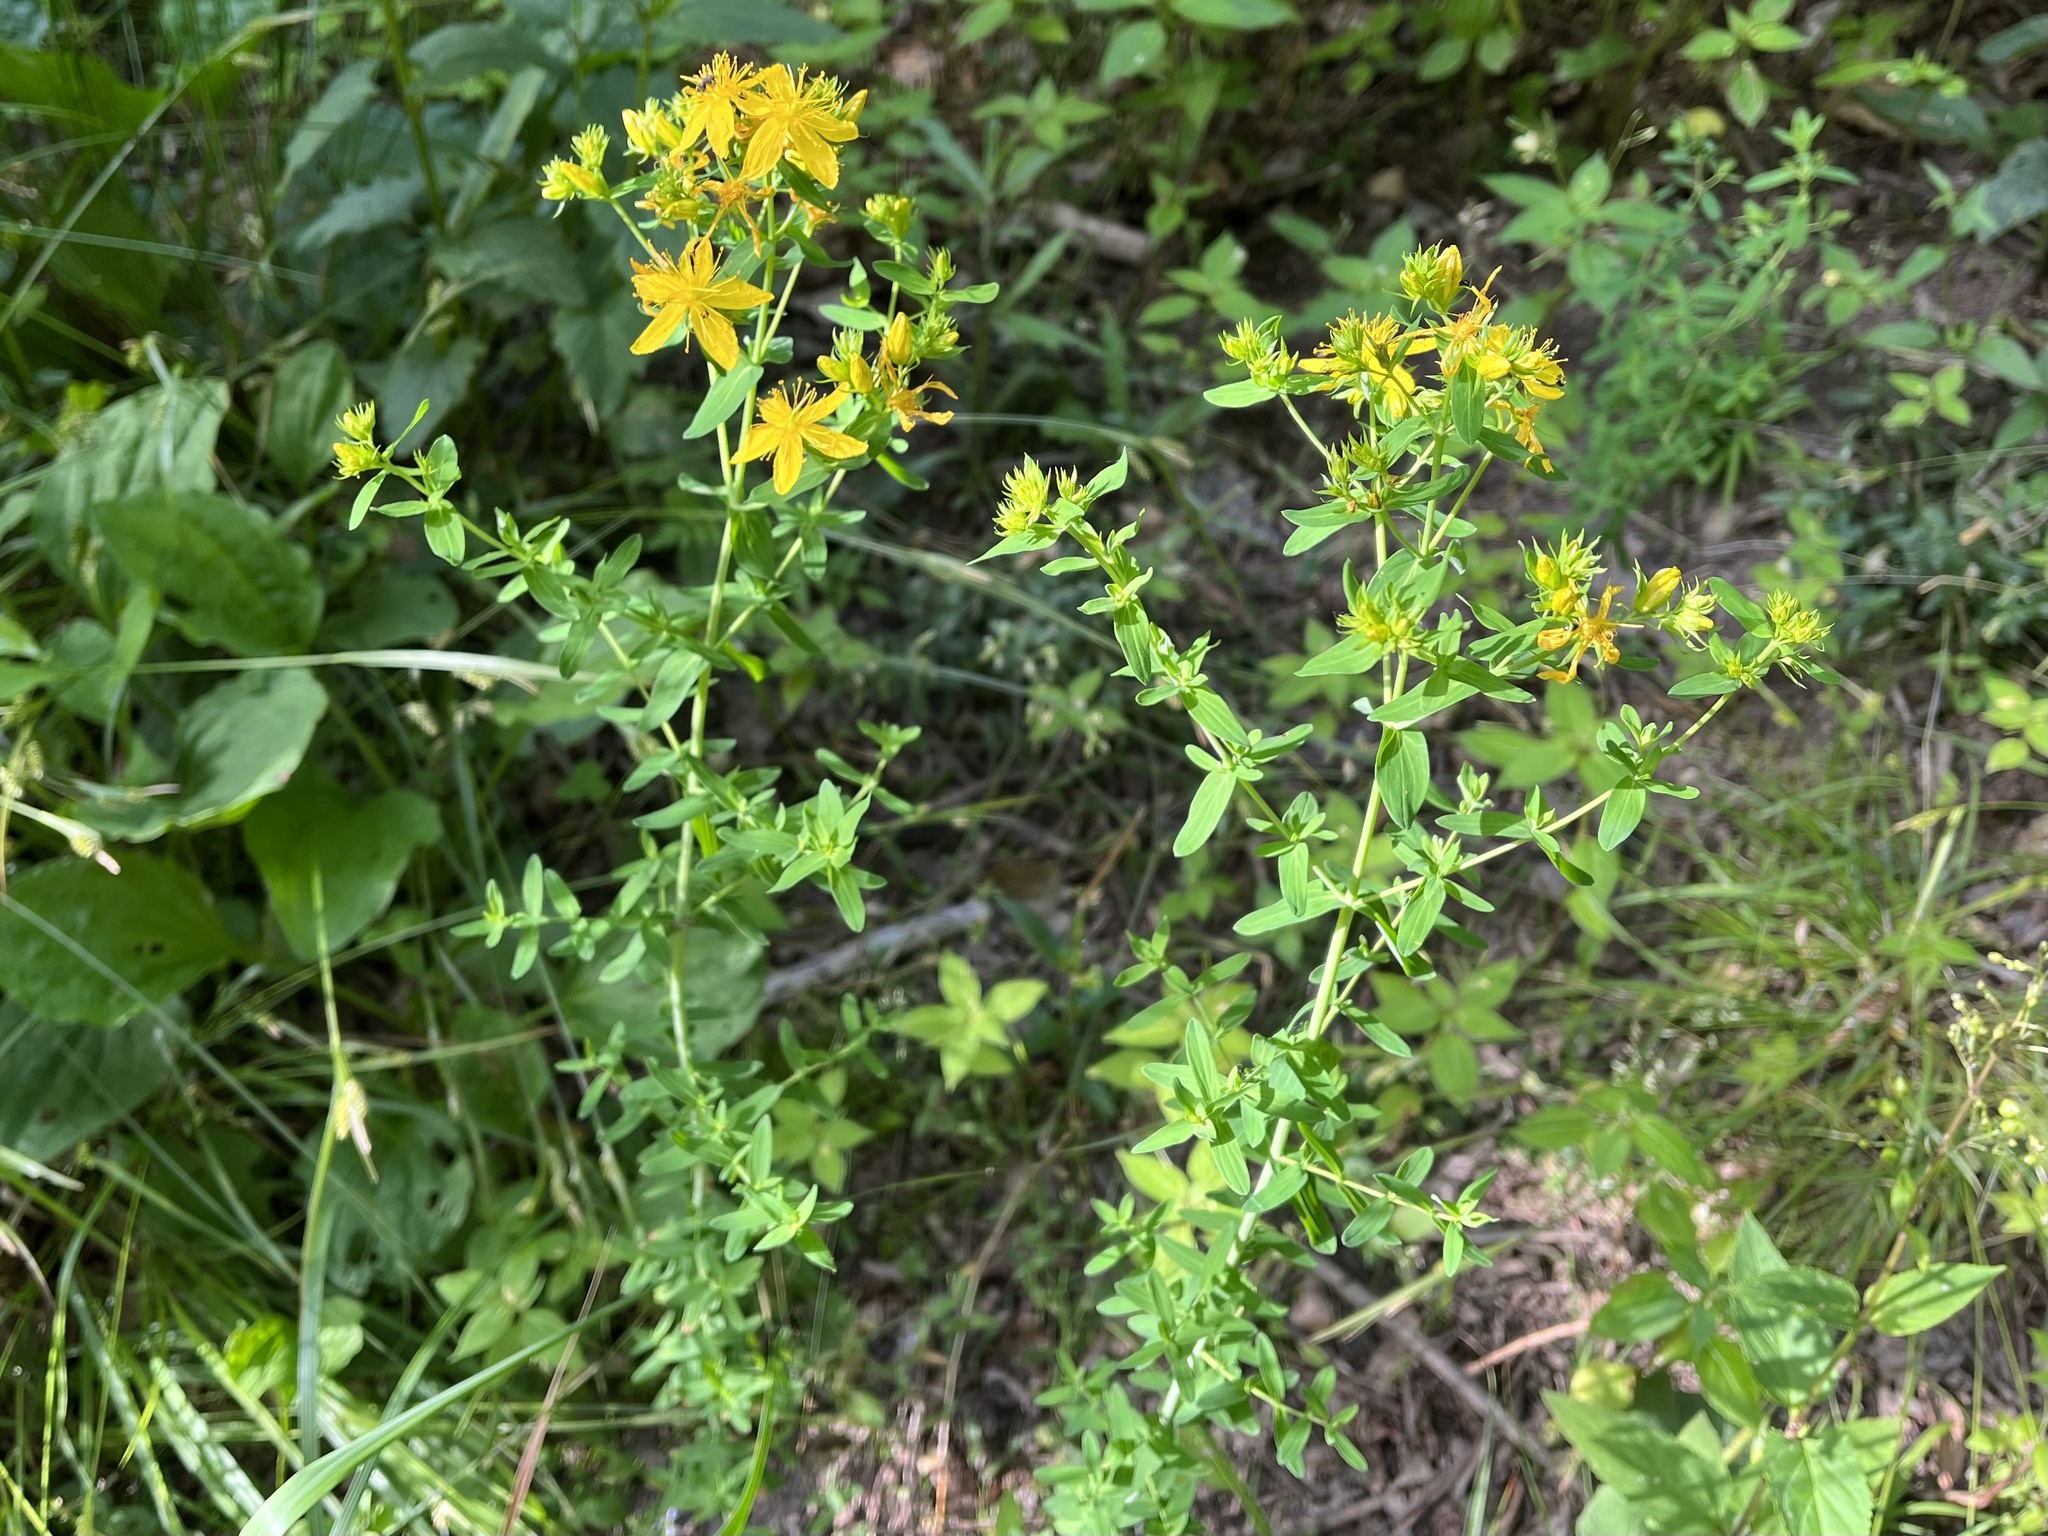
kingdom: Plantae
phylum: Tracheophyta
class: Magnoliopsida
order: Malpighiales
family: Hypericaceae
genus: Hypericum
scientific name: Hypericum perforatum
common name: Common st. johnswort
